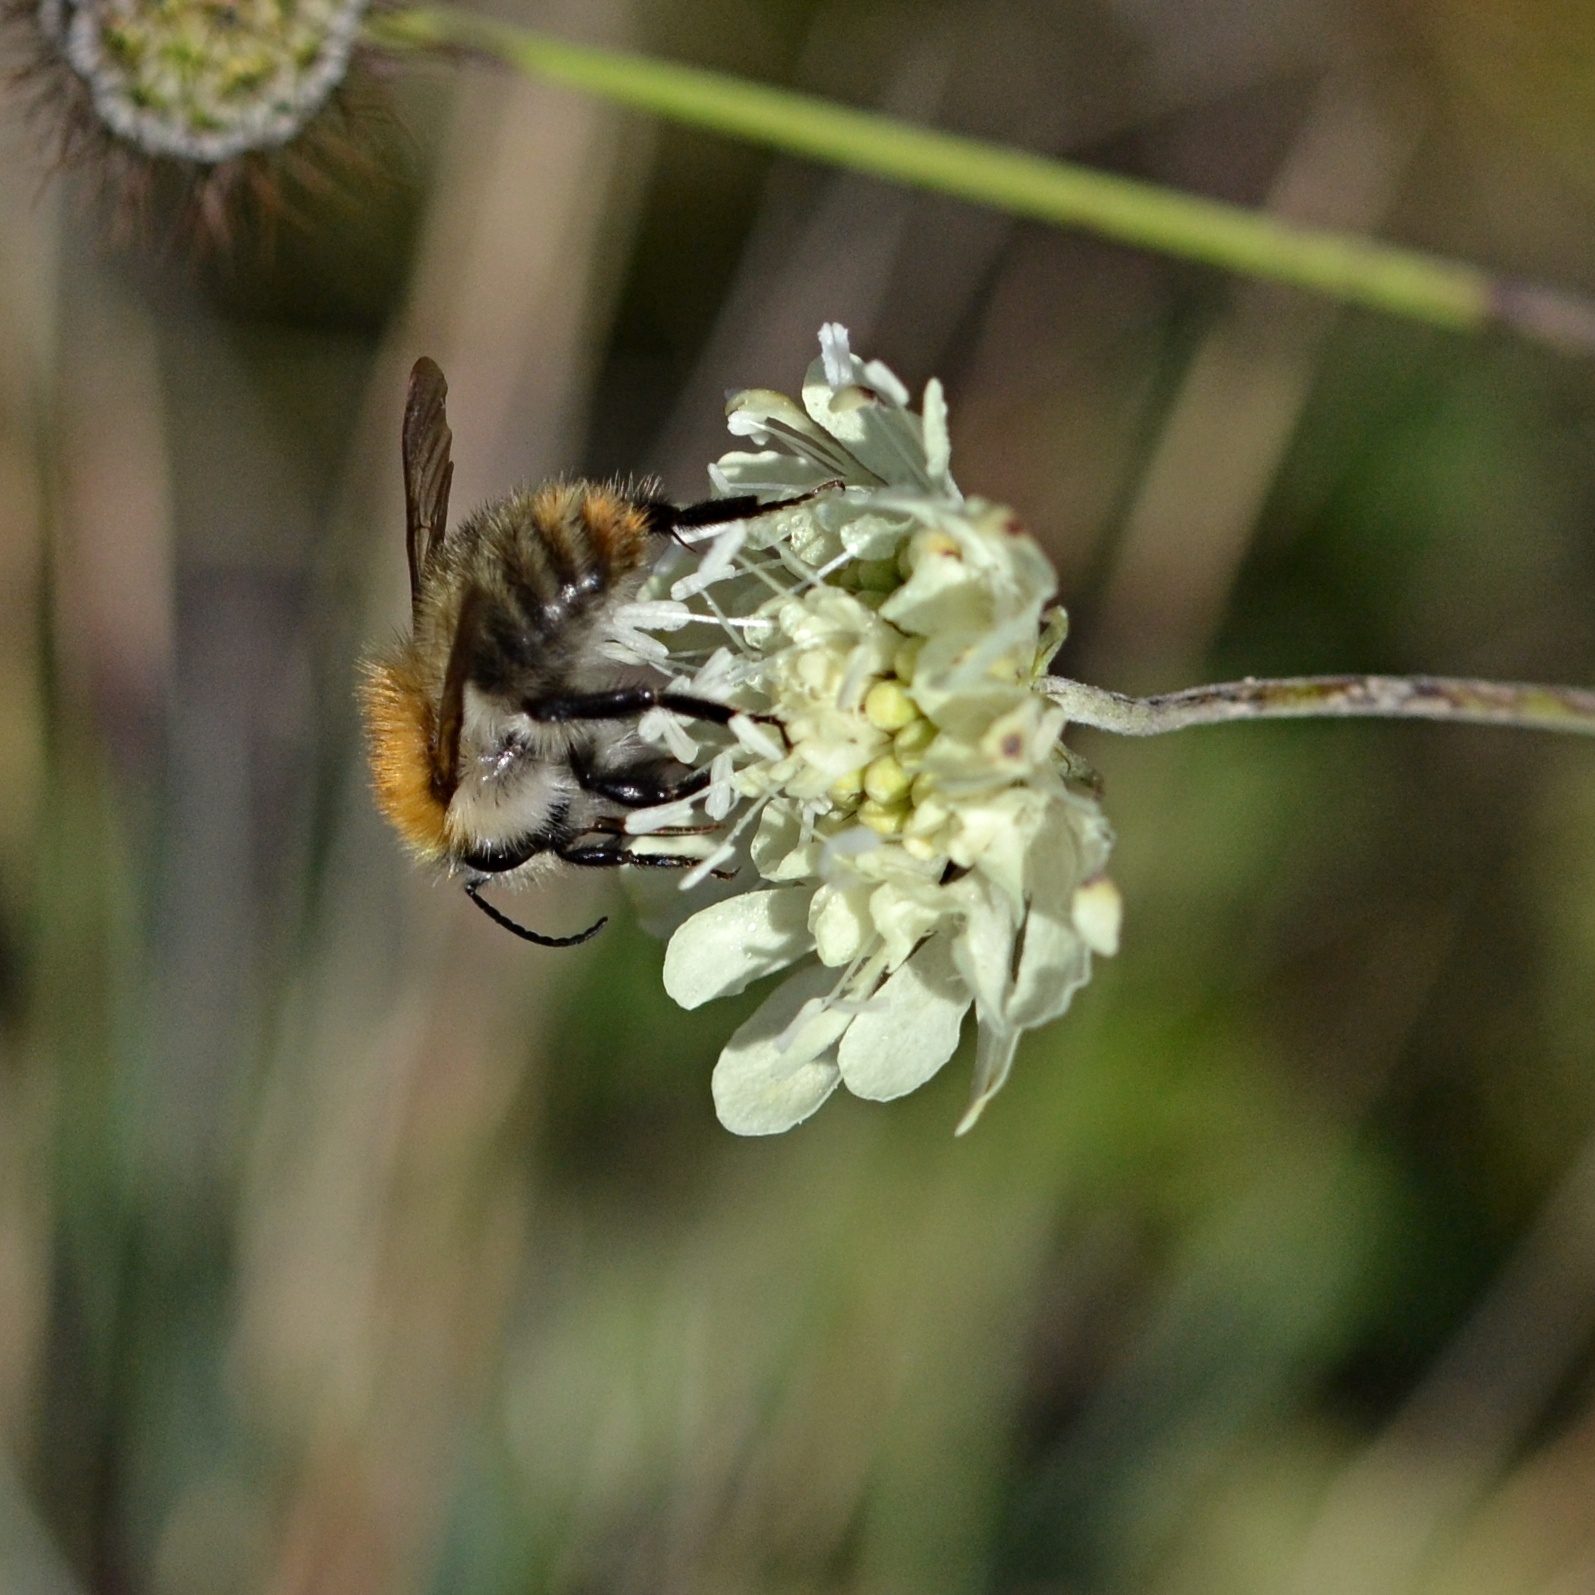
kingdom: Animalia
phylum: Arthropoda
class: Insecta
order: Hymenoptera
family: Apidae
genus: Bombus
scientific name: Bombus pascuorum
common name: Common carder bee
